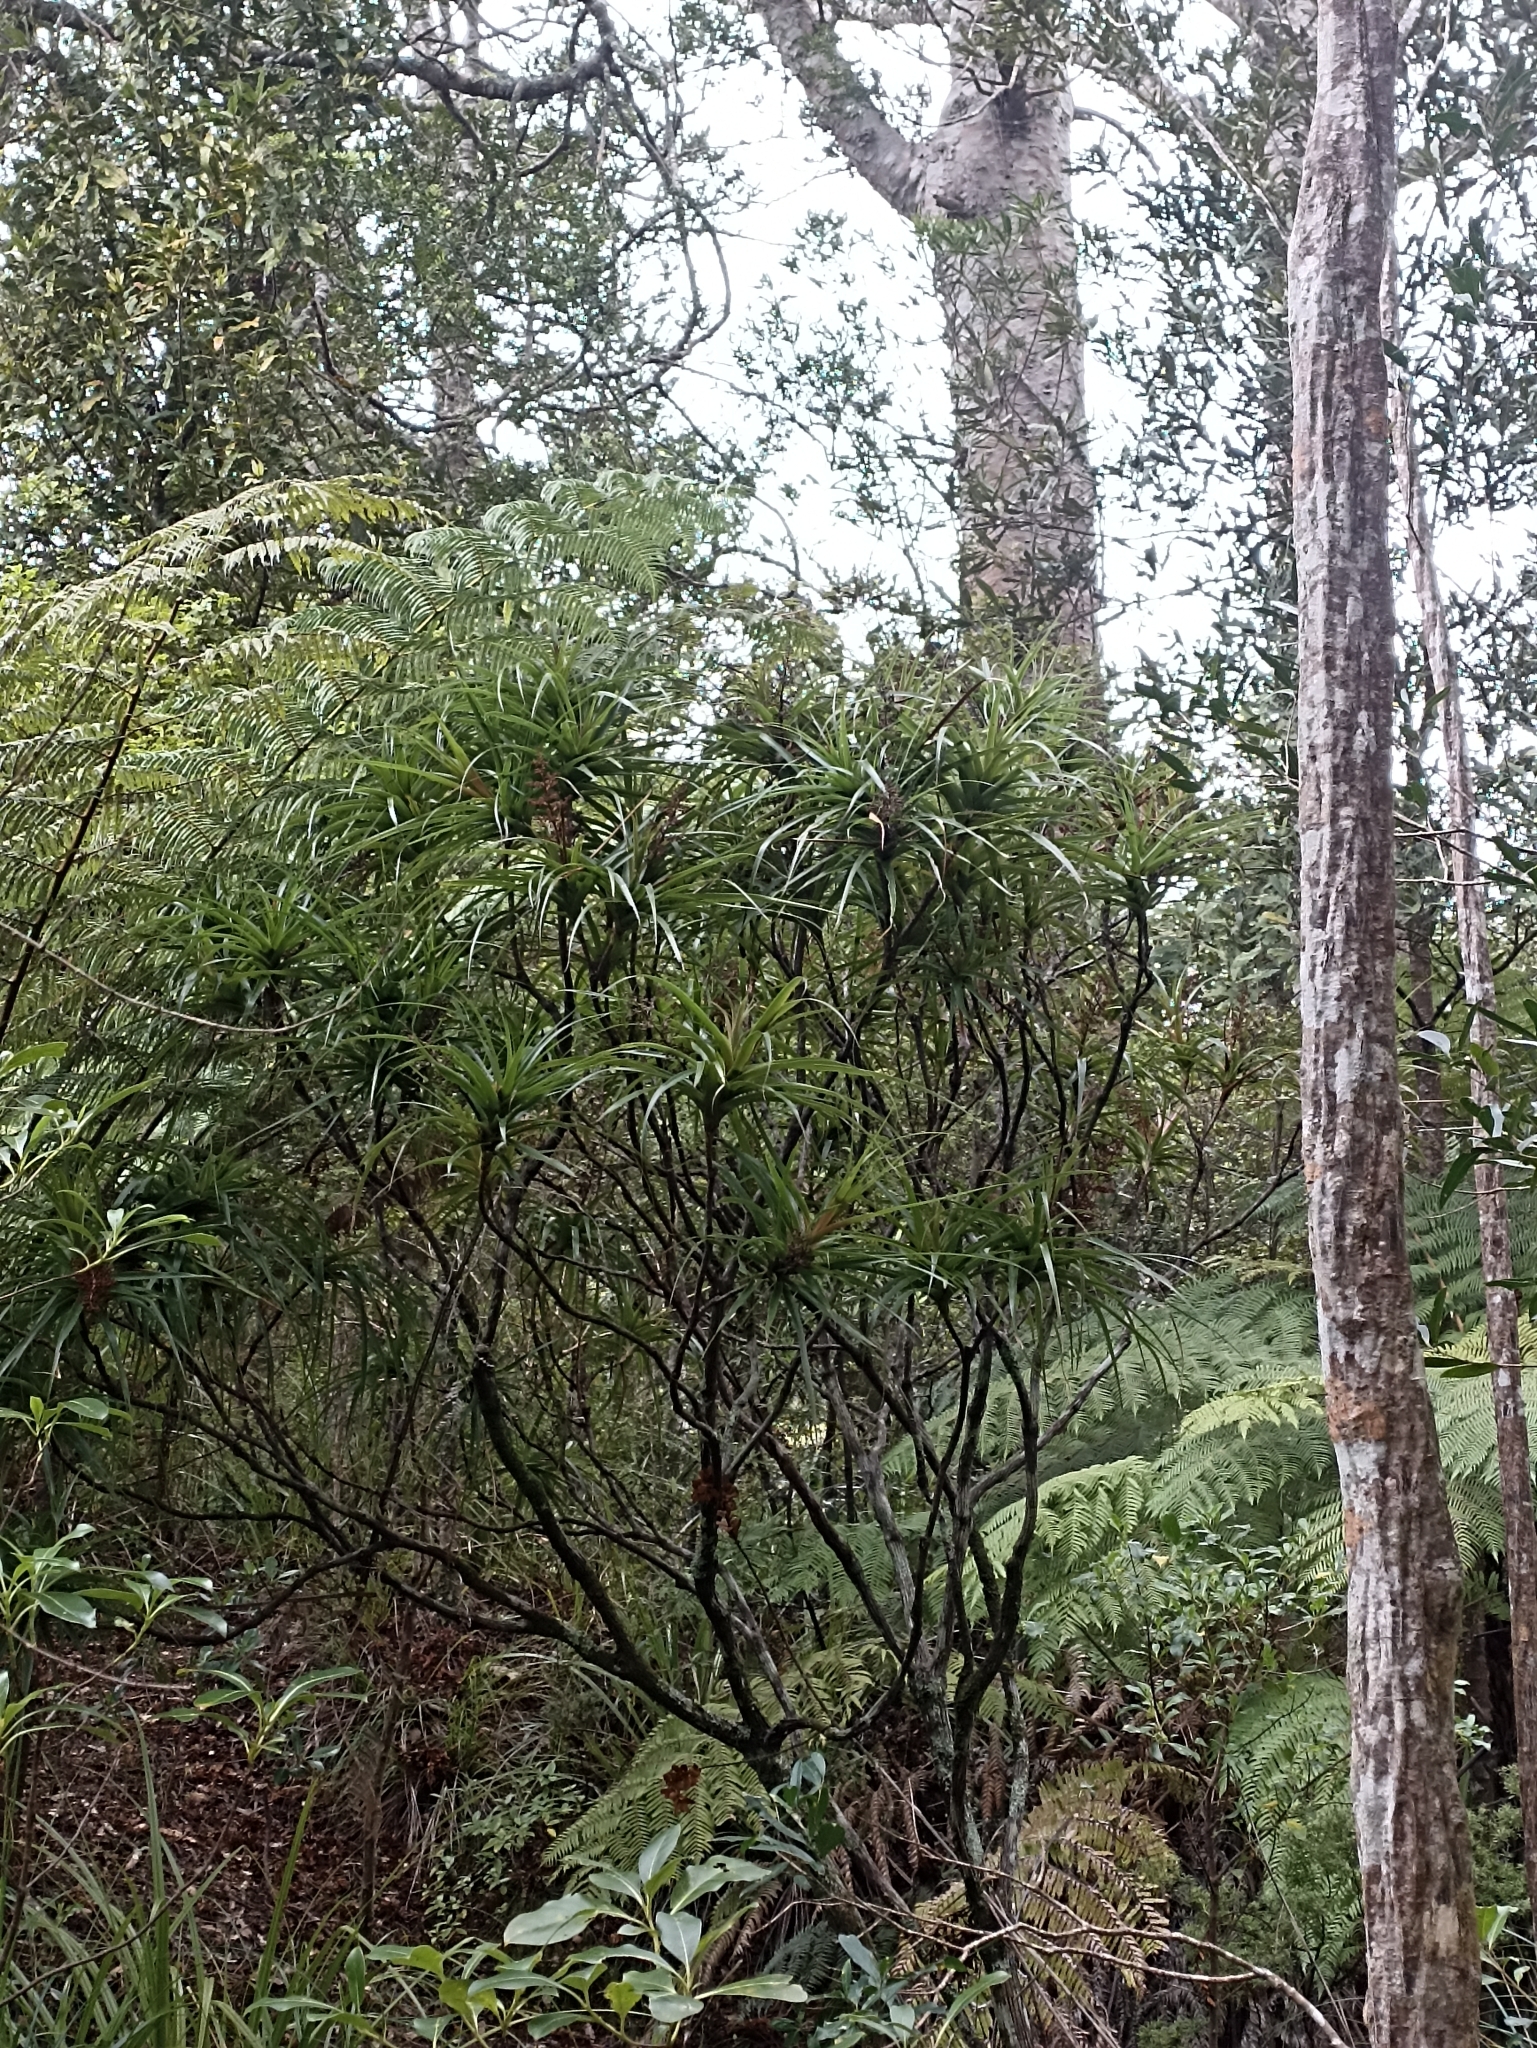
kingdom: Plantae
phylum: Tracheophyta
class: Magnoliopsida
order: Ericales
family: Ericaceae
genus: Dracophyllum
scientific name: Dracophyllum latifolium
